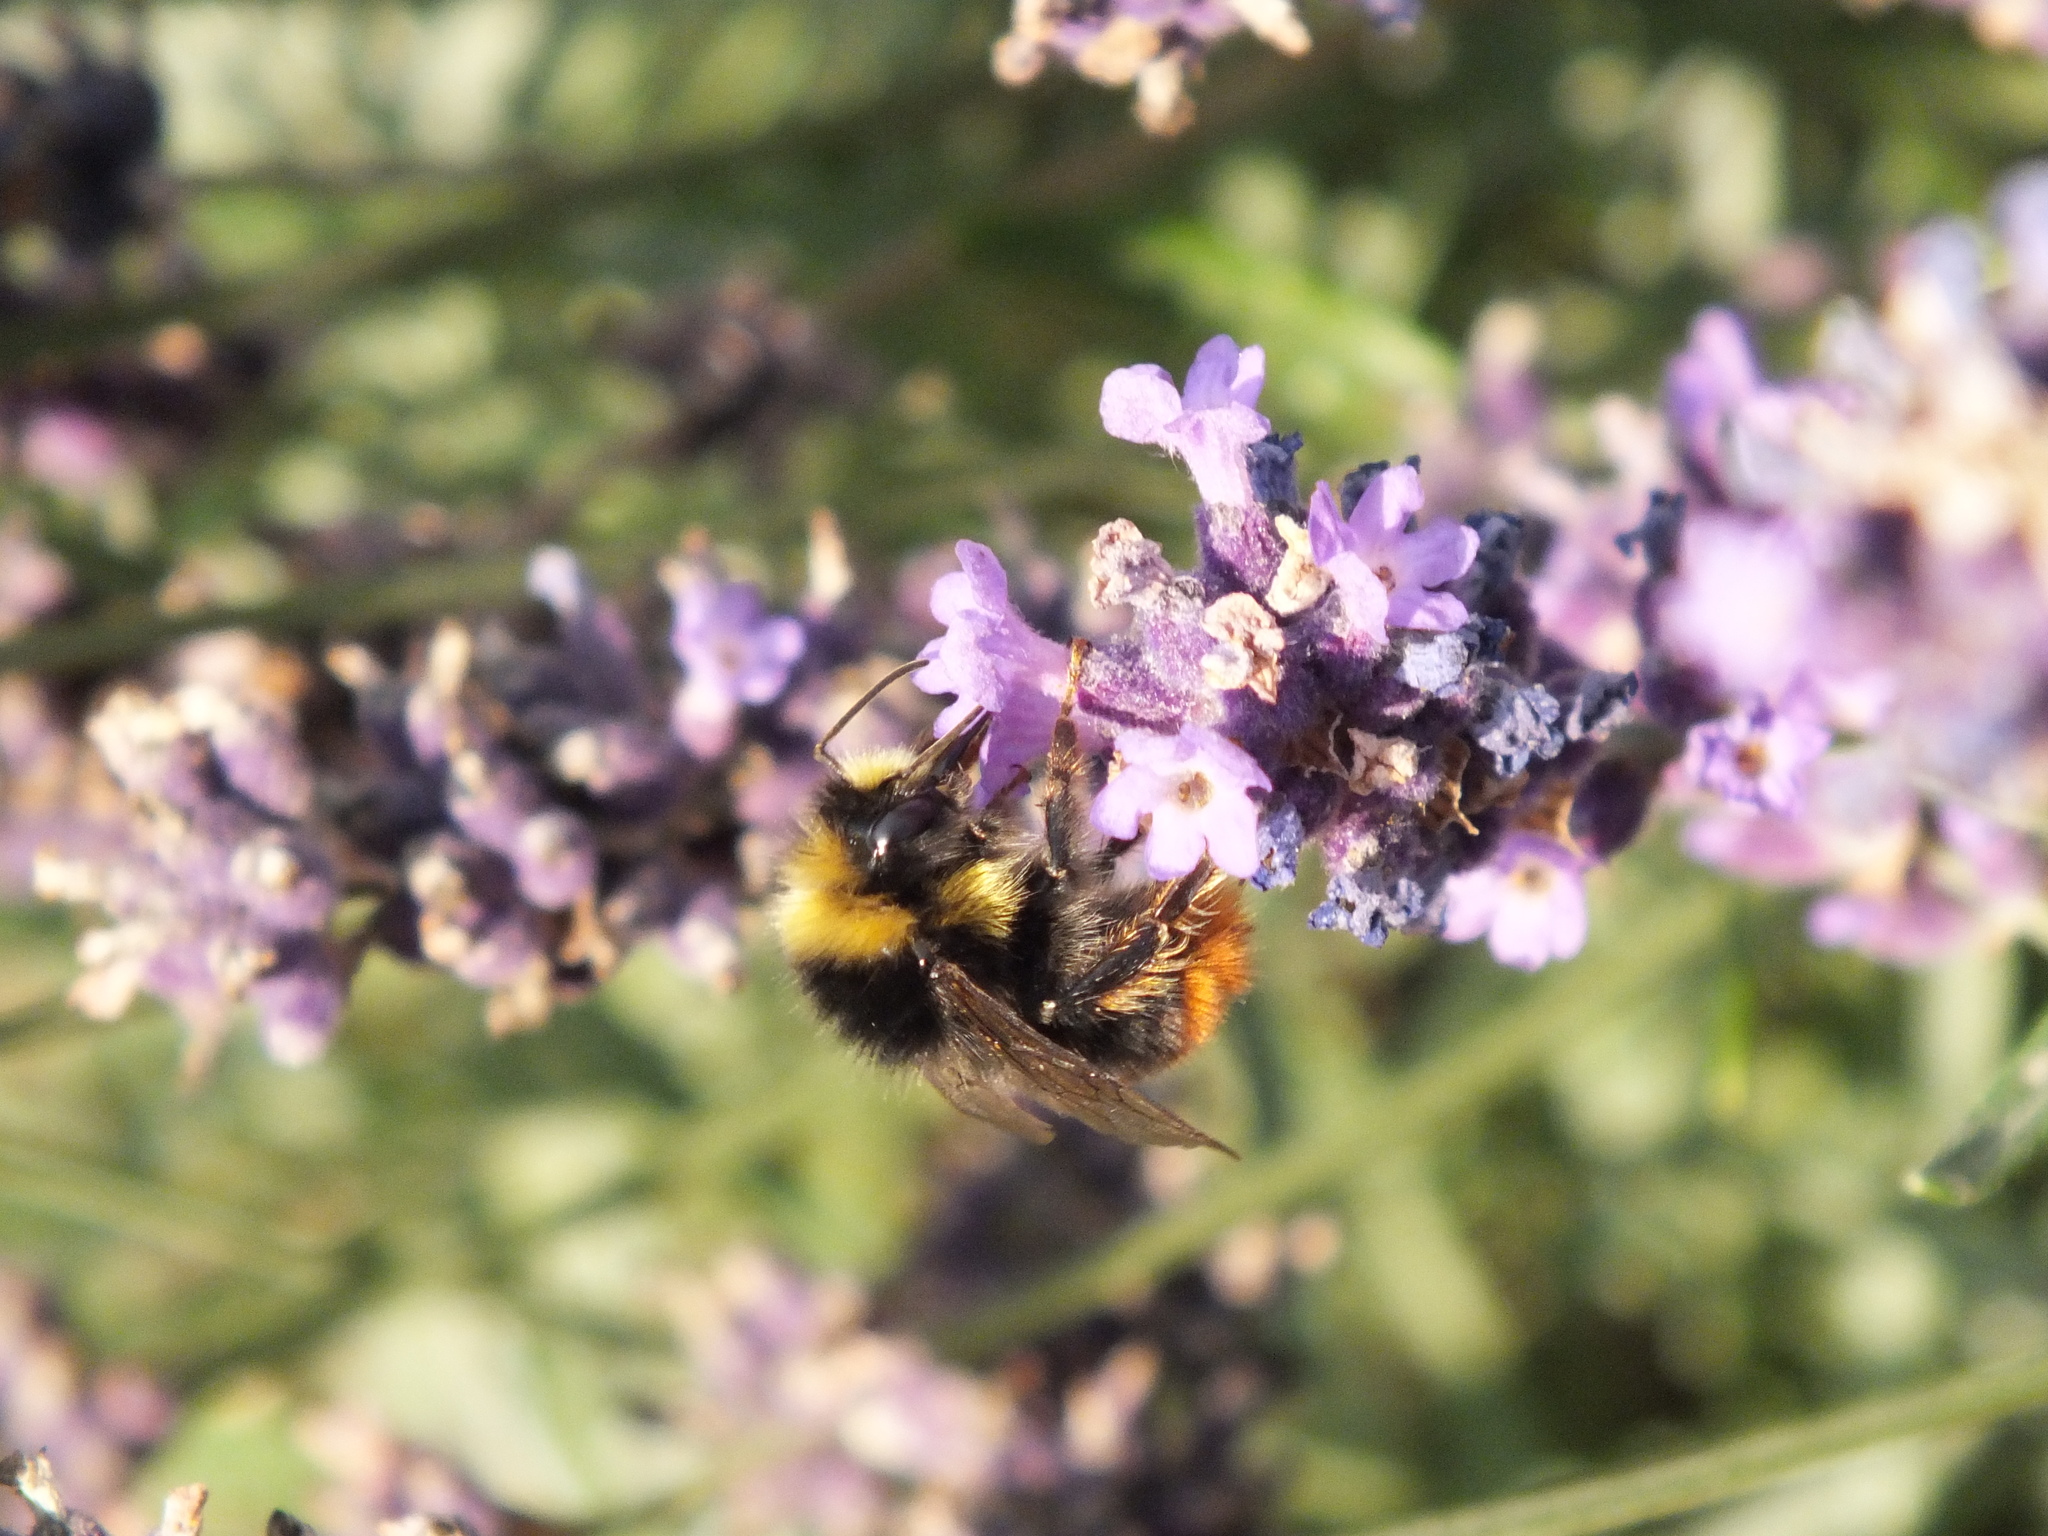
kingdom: Animalia
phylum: Arthropoda
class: Insecta
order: Hymenoptera
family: Apidae
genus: Bombus
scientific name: Bombus lapidarius
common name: Large red-tailed humble-bee
